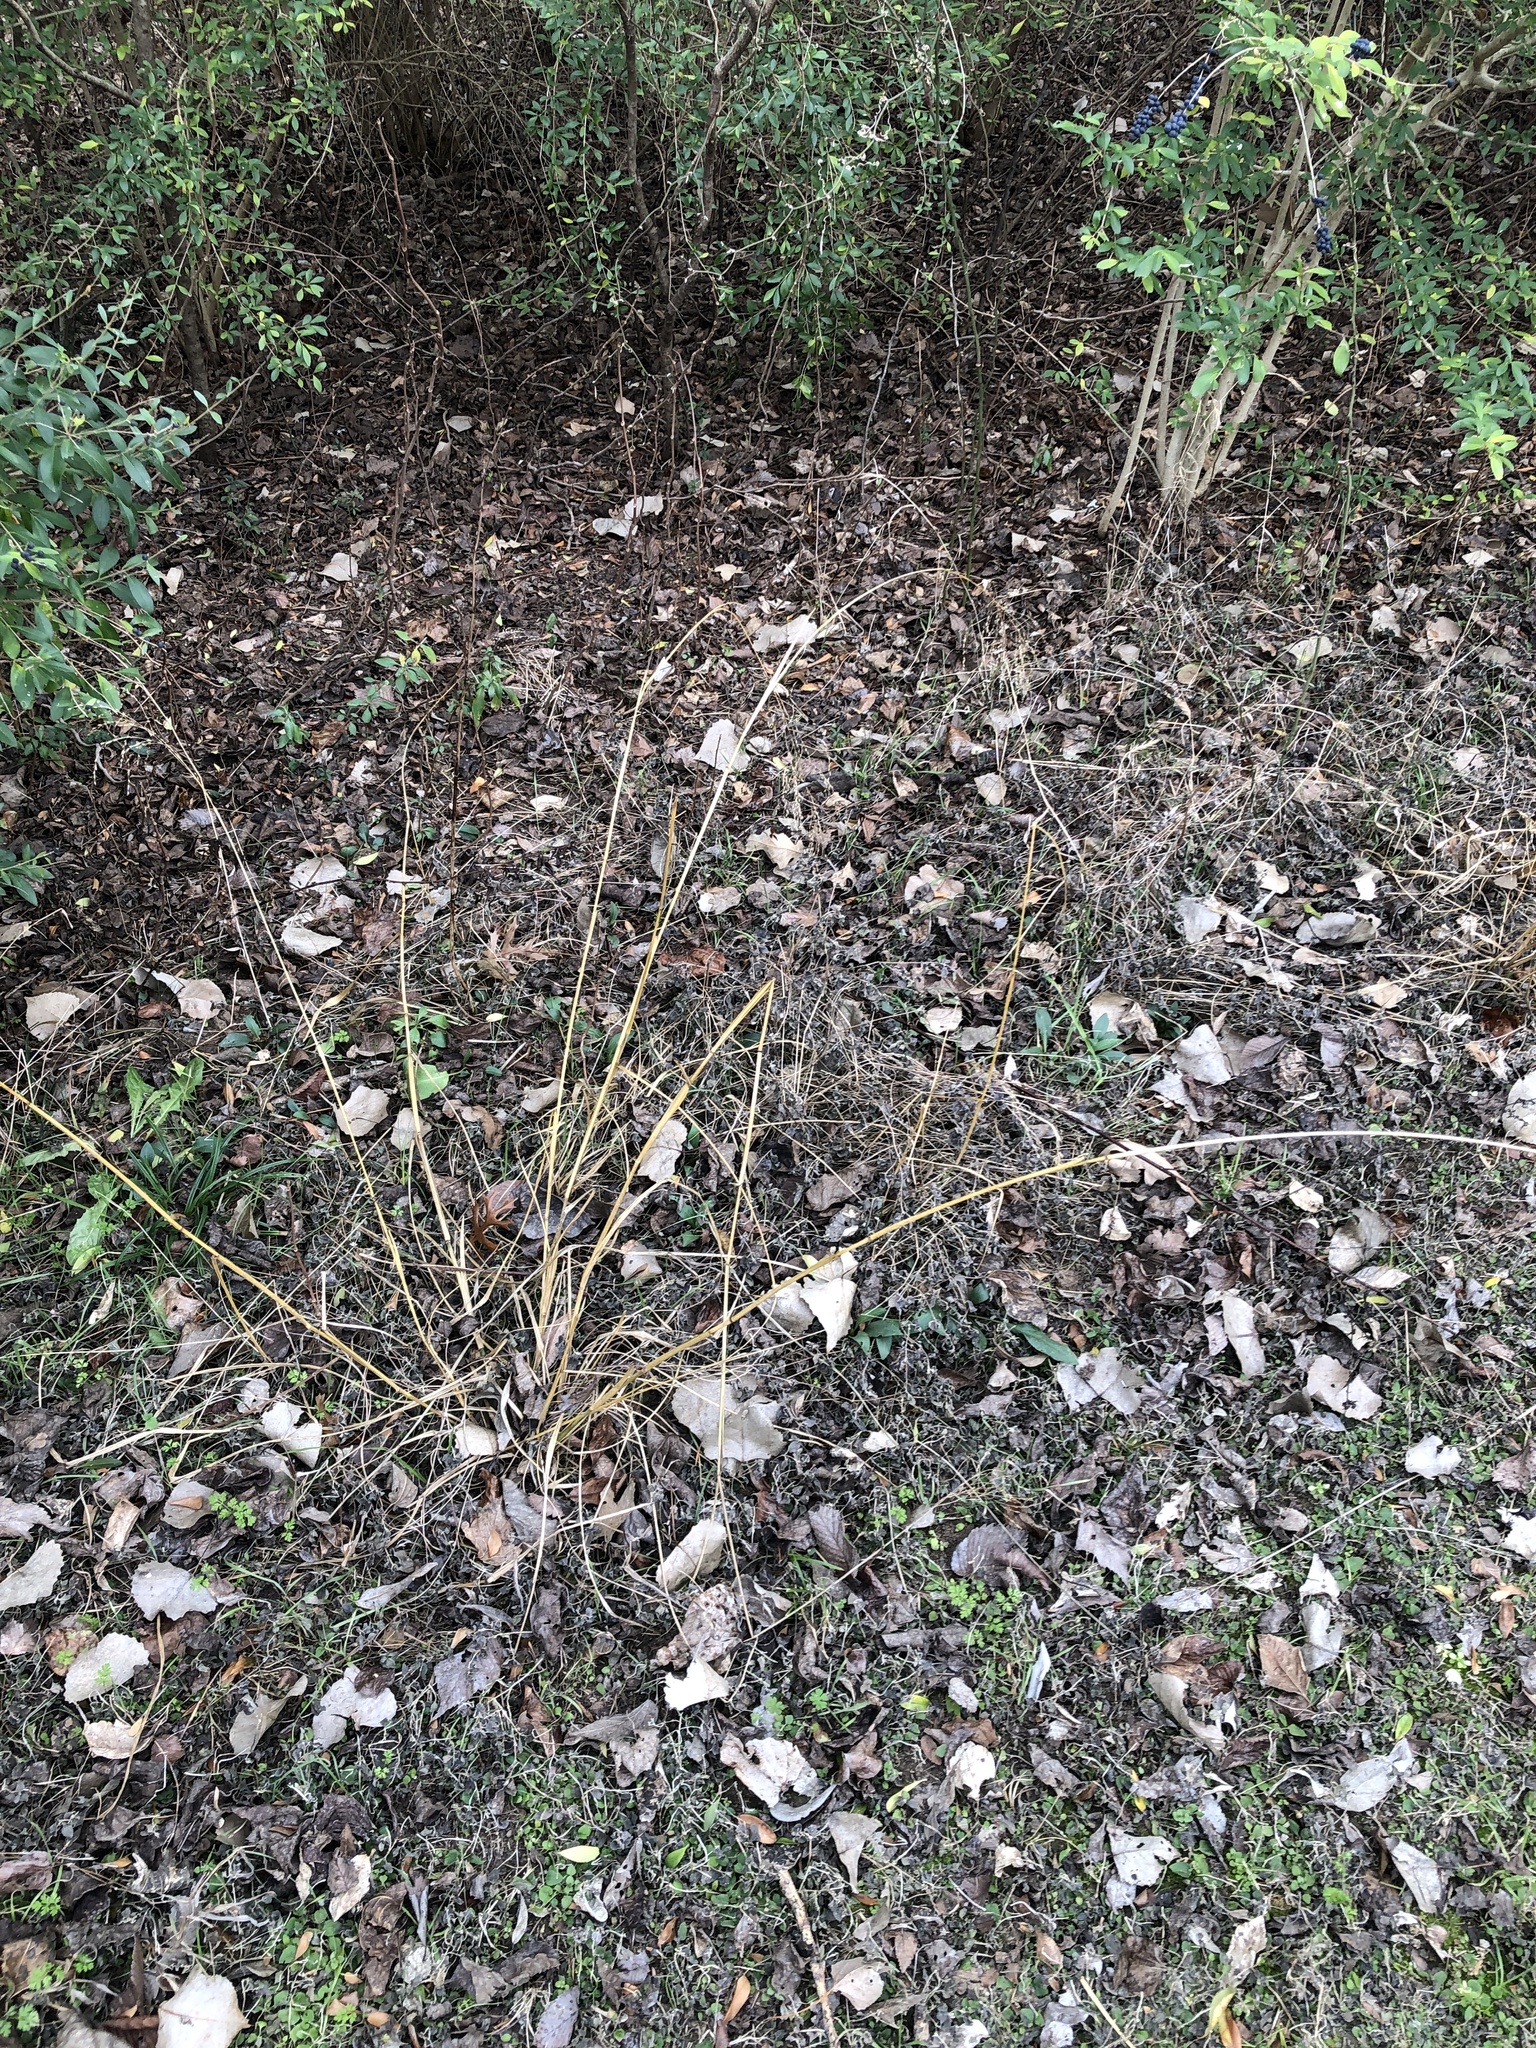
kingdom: Plantae
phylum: Tracheophyta
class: Liliopsida
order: Poales
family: Poaceae
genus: Tridens
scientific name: Tridens flavus
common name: Purpletop
